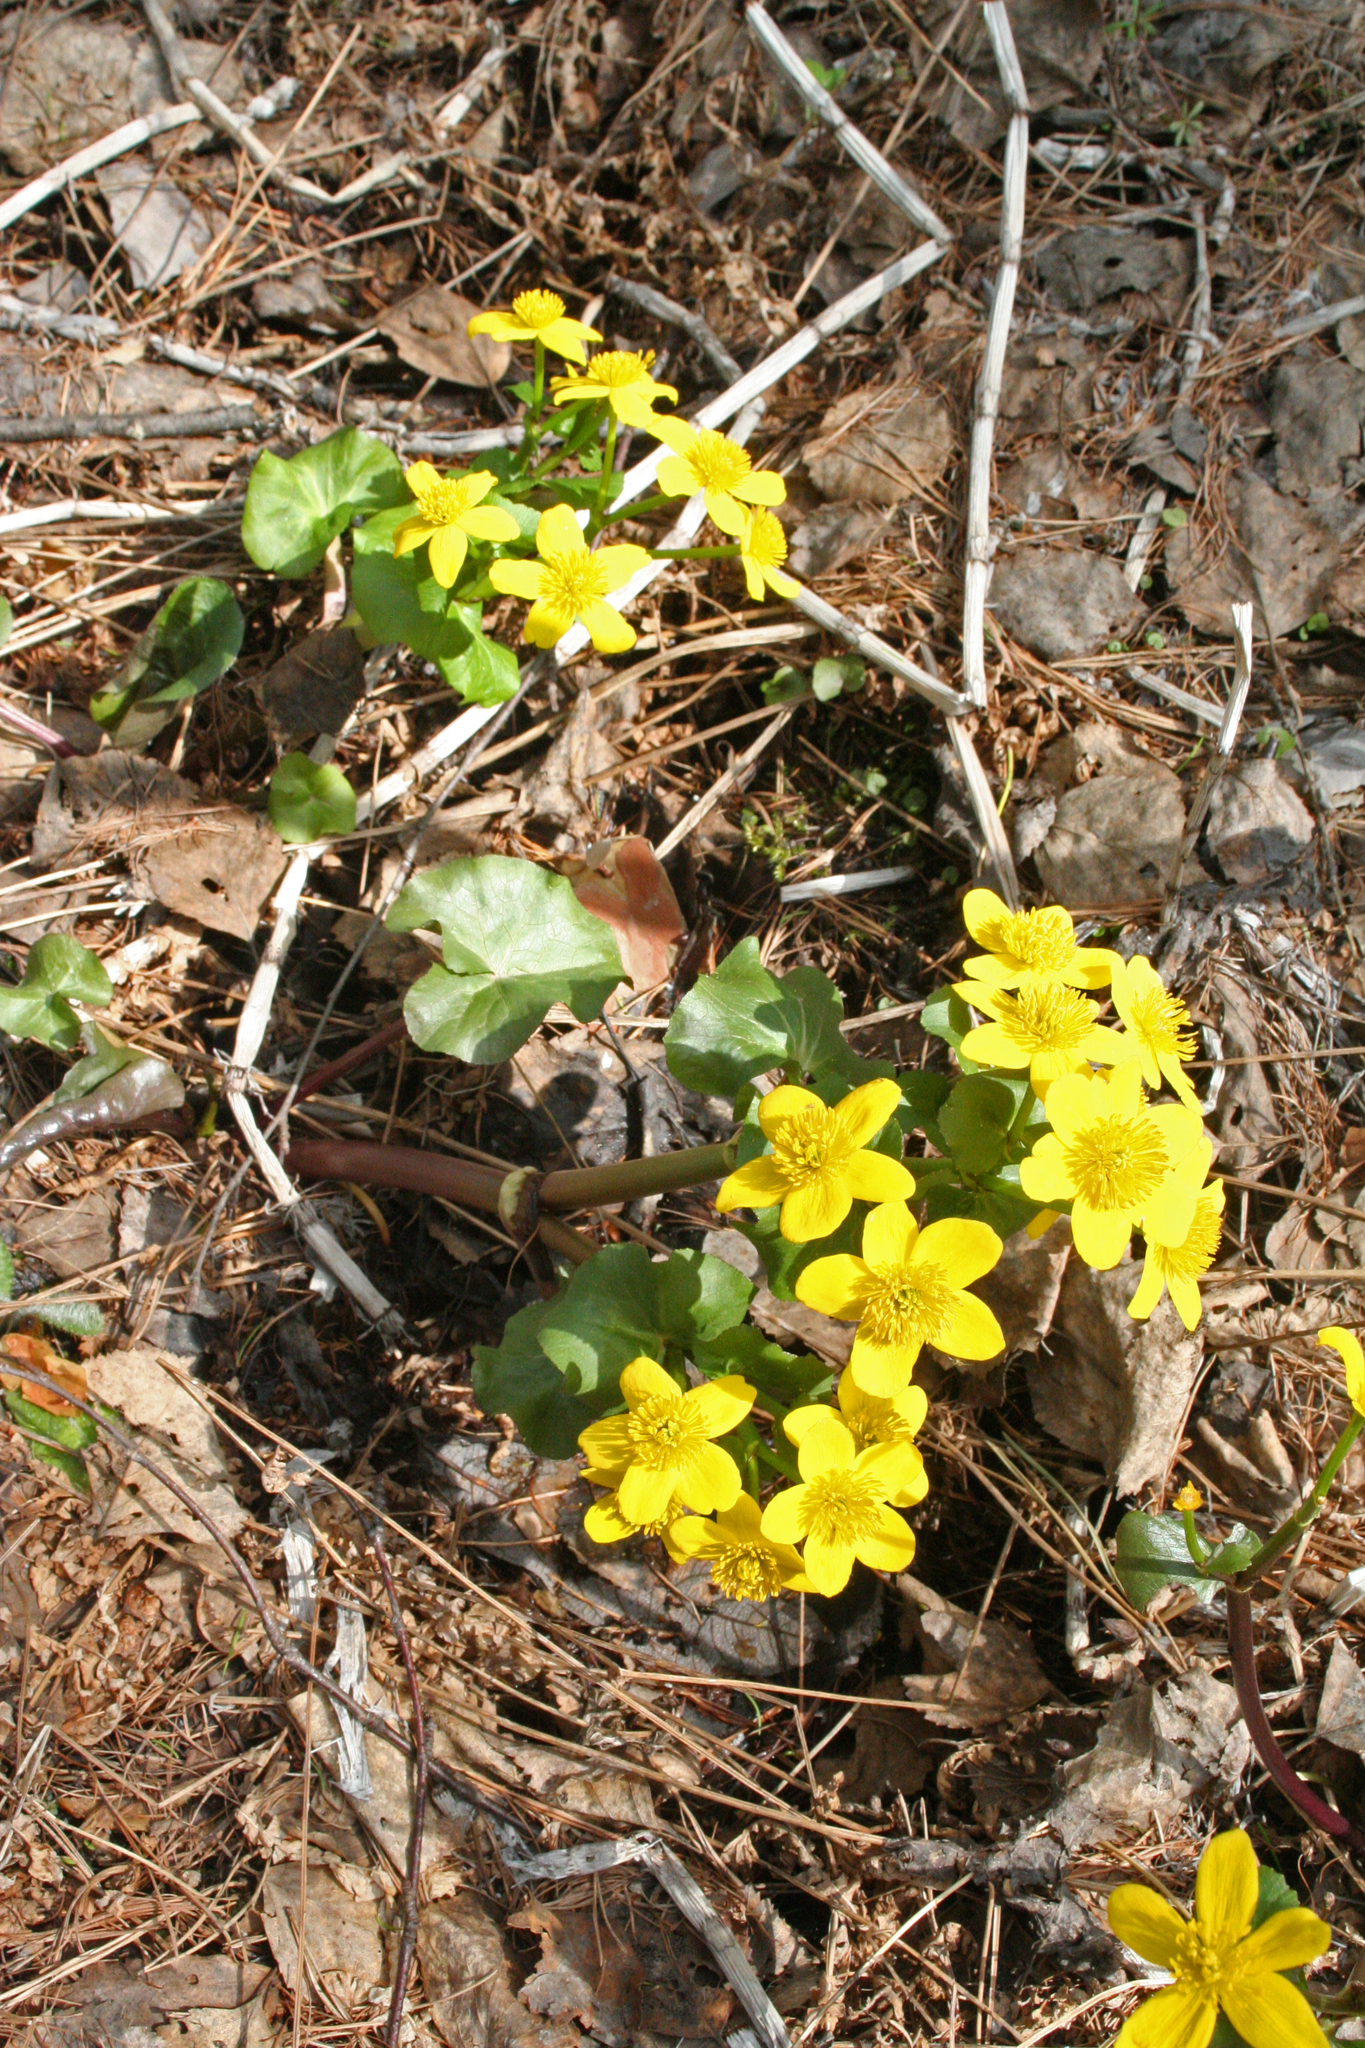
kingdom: Plantae
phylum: Tracheophyta
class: Magnoliopsida
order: Ranunculales
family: Ranunculaceae
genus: Caltha
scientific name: Caltha palustris
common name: Marsh marigold
